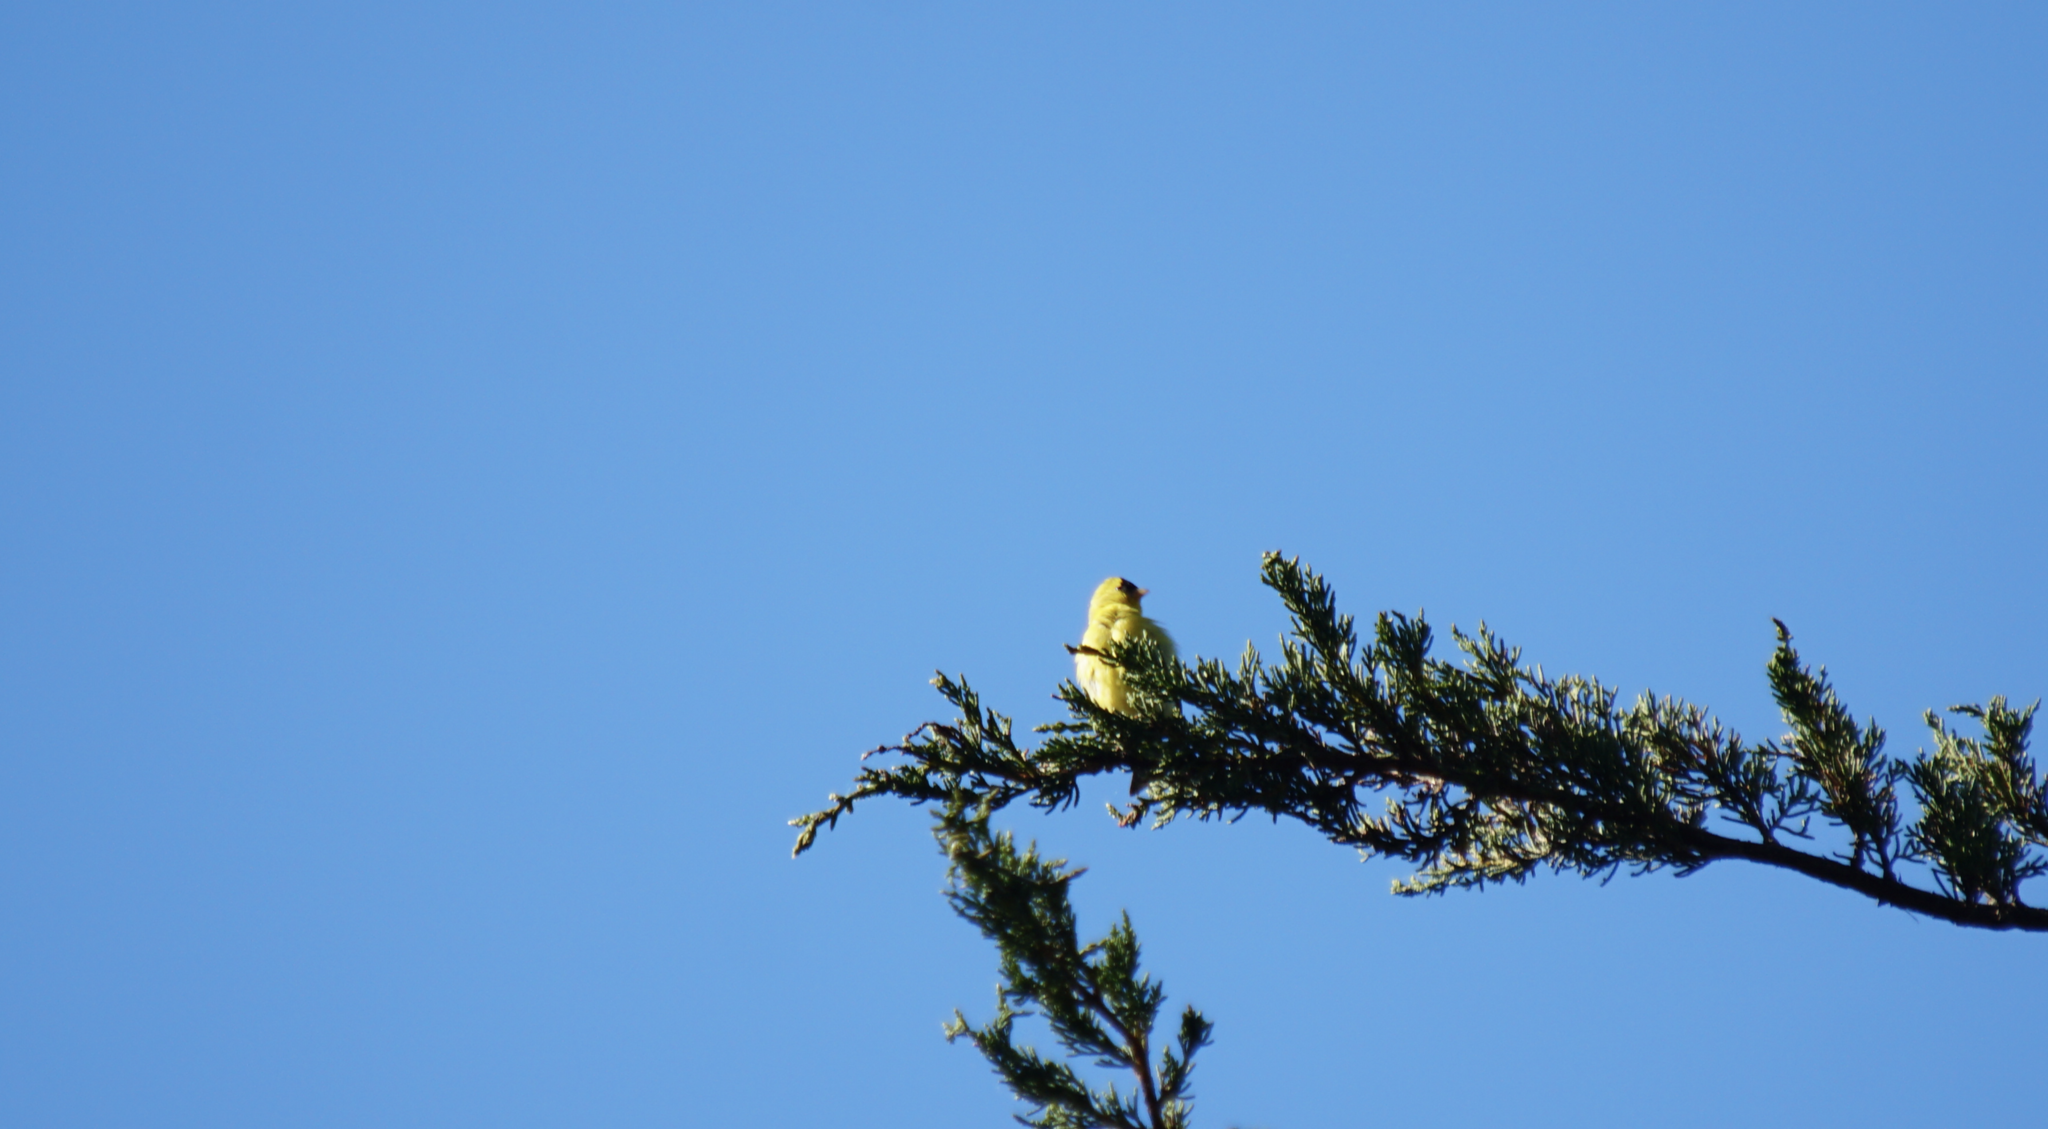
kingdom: Animalia
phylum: Chordata
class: Aves
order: Passeriformes
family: Fringillidae
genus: Spinus
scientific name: Spinus tristis
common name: American goldfinch
